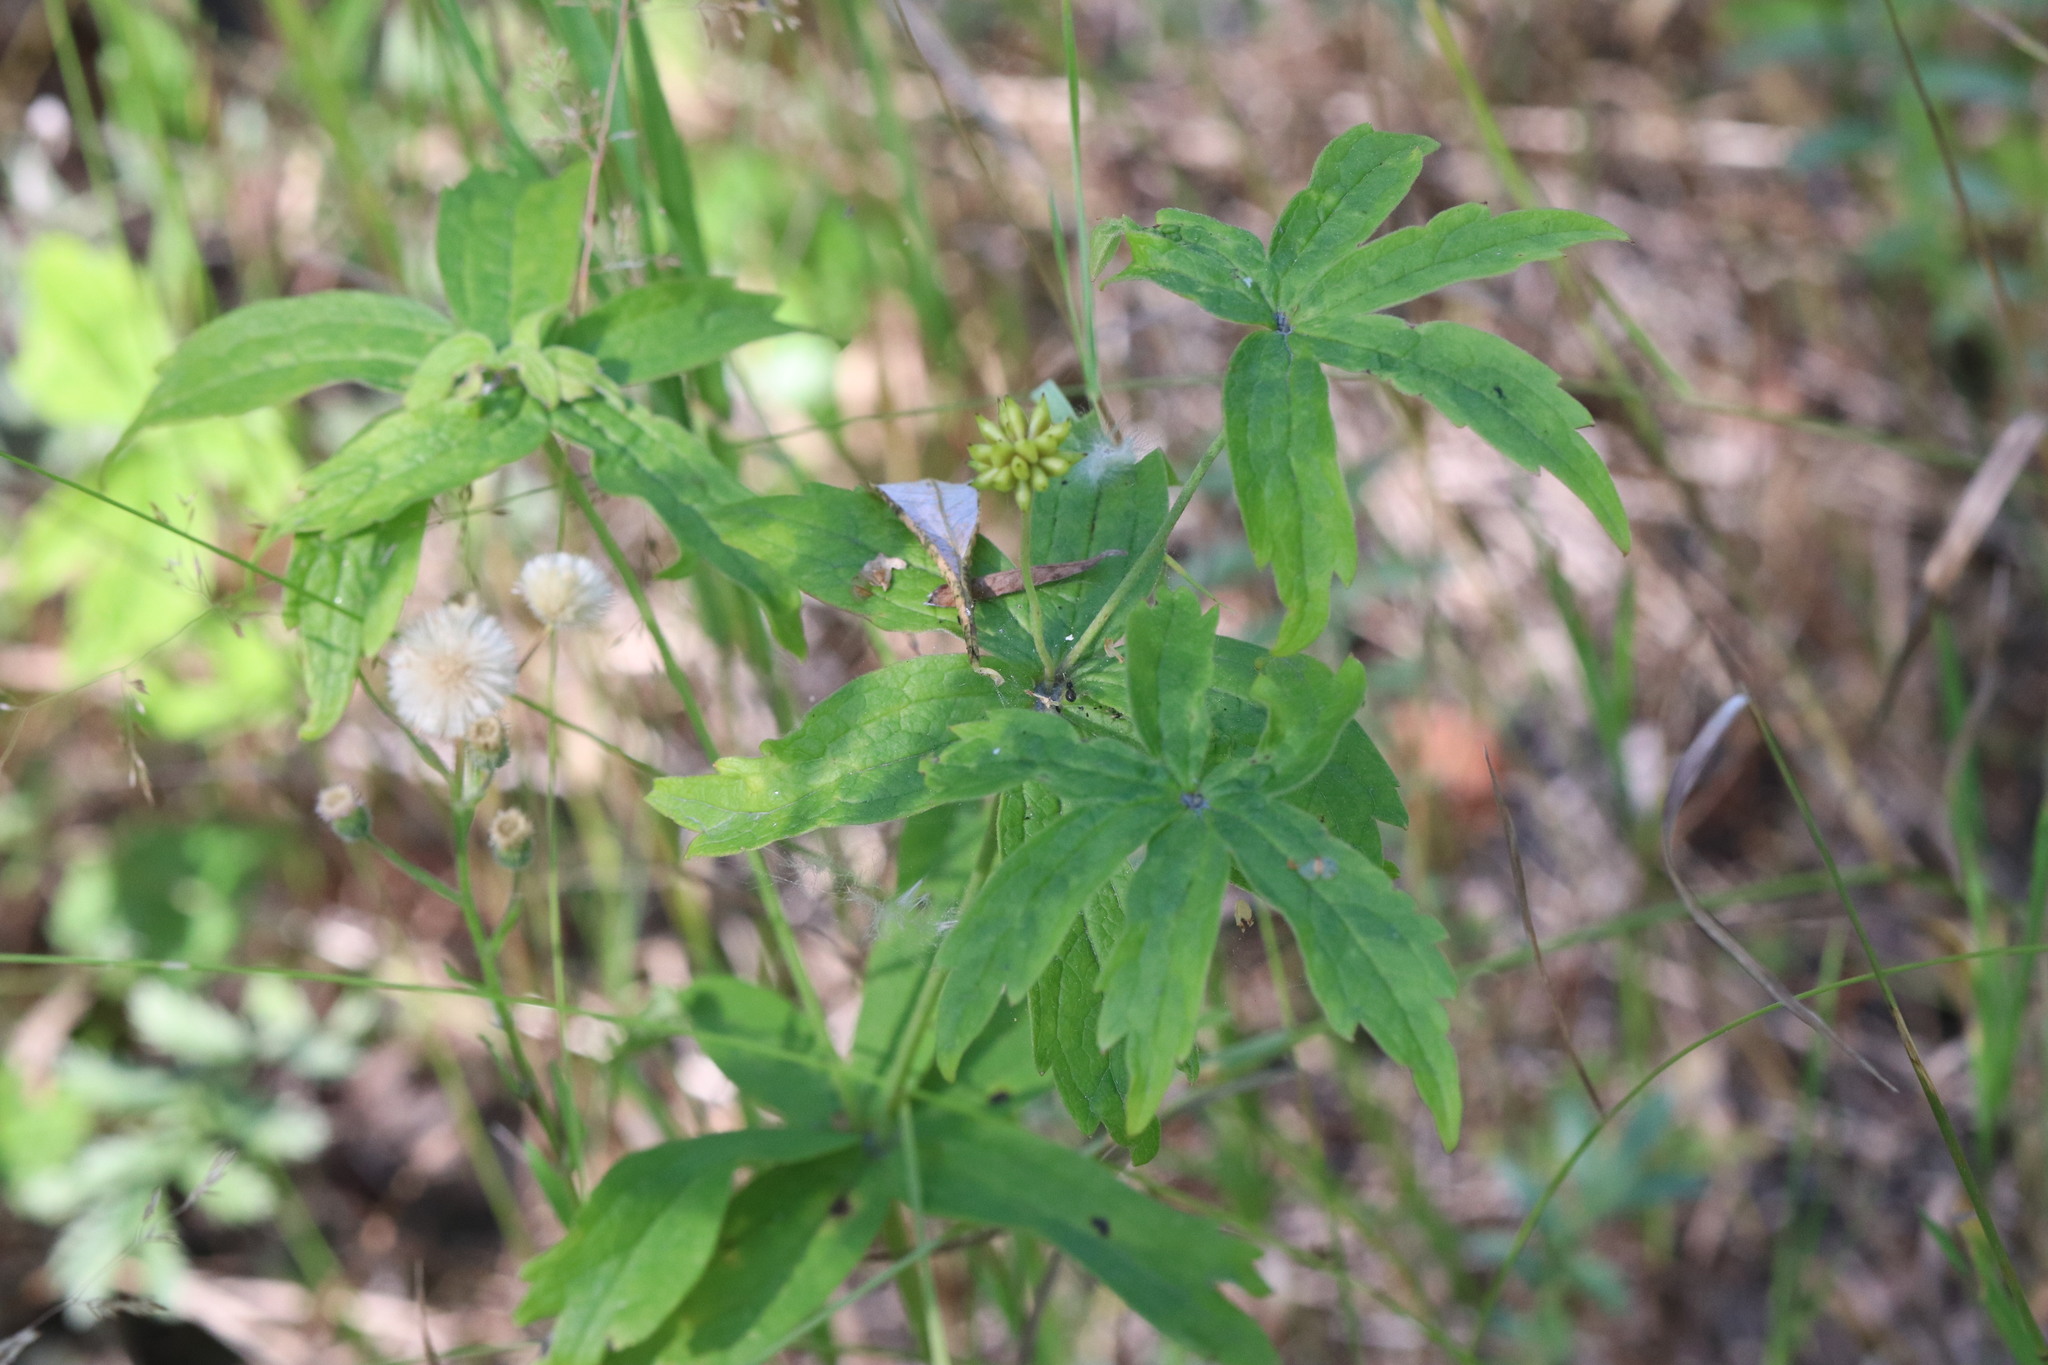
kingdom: Plantae
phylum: Tracheophyta
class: Magnoliopsida
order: Ranunculales
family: Ranunculaceae
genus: Anemonastrum
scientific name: Anemonastrum dichotomum
